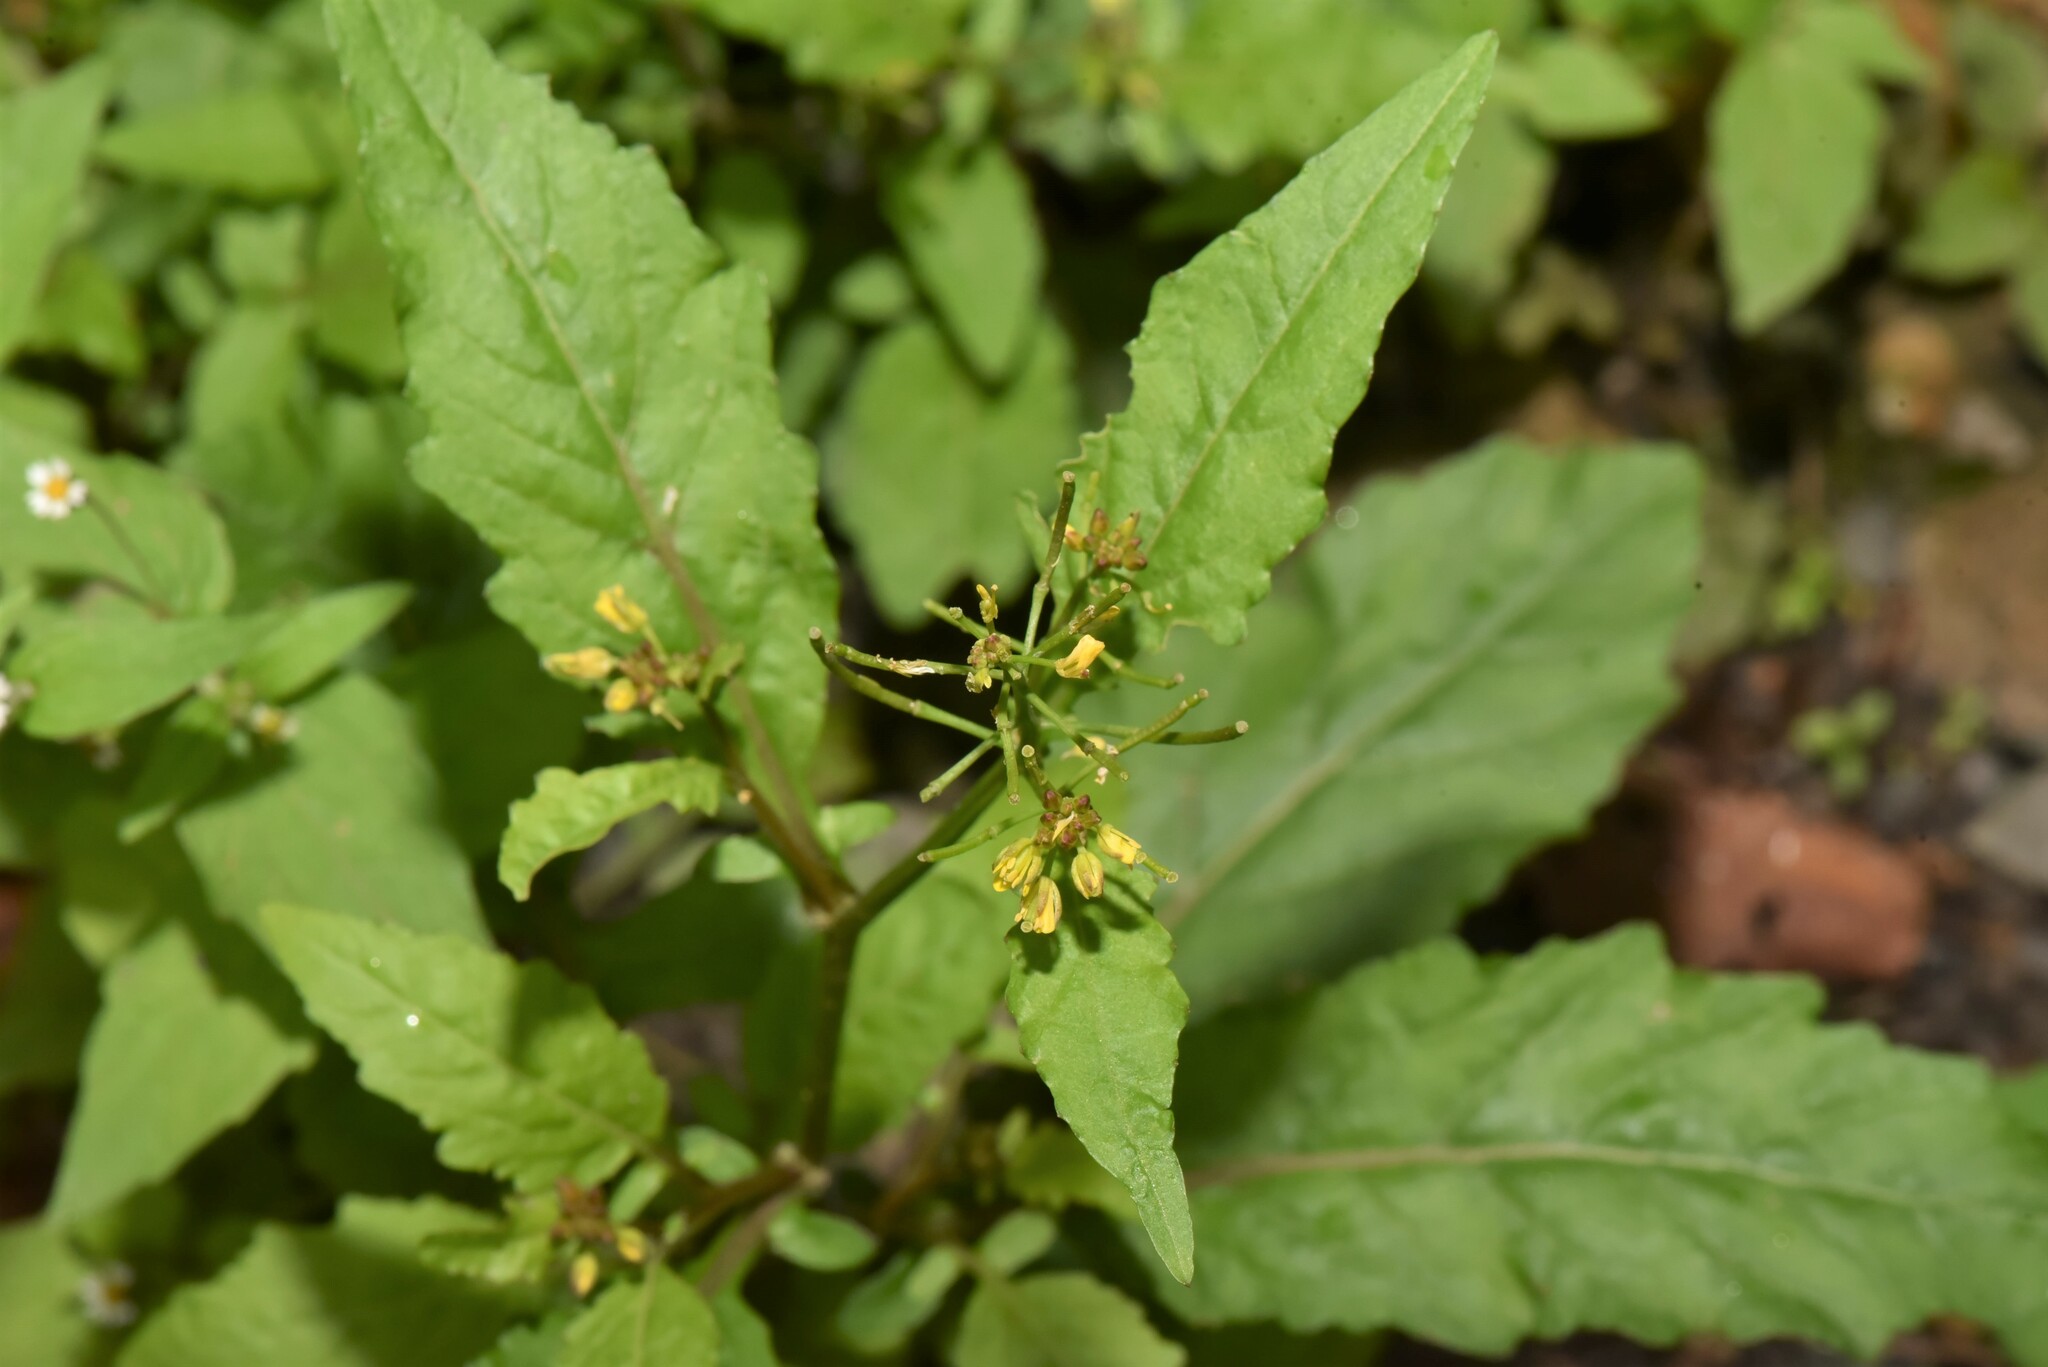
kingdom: Plantae
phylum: Tracheophyta
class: Magnoliopsida
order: Brassicales
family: Brassicaceae
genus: Rorippa
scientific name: Rorippa indica
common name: Variableleaf yellowcress
